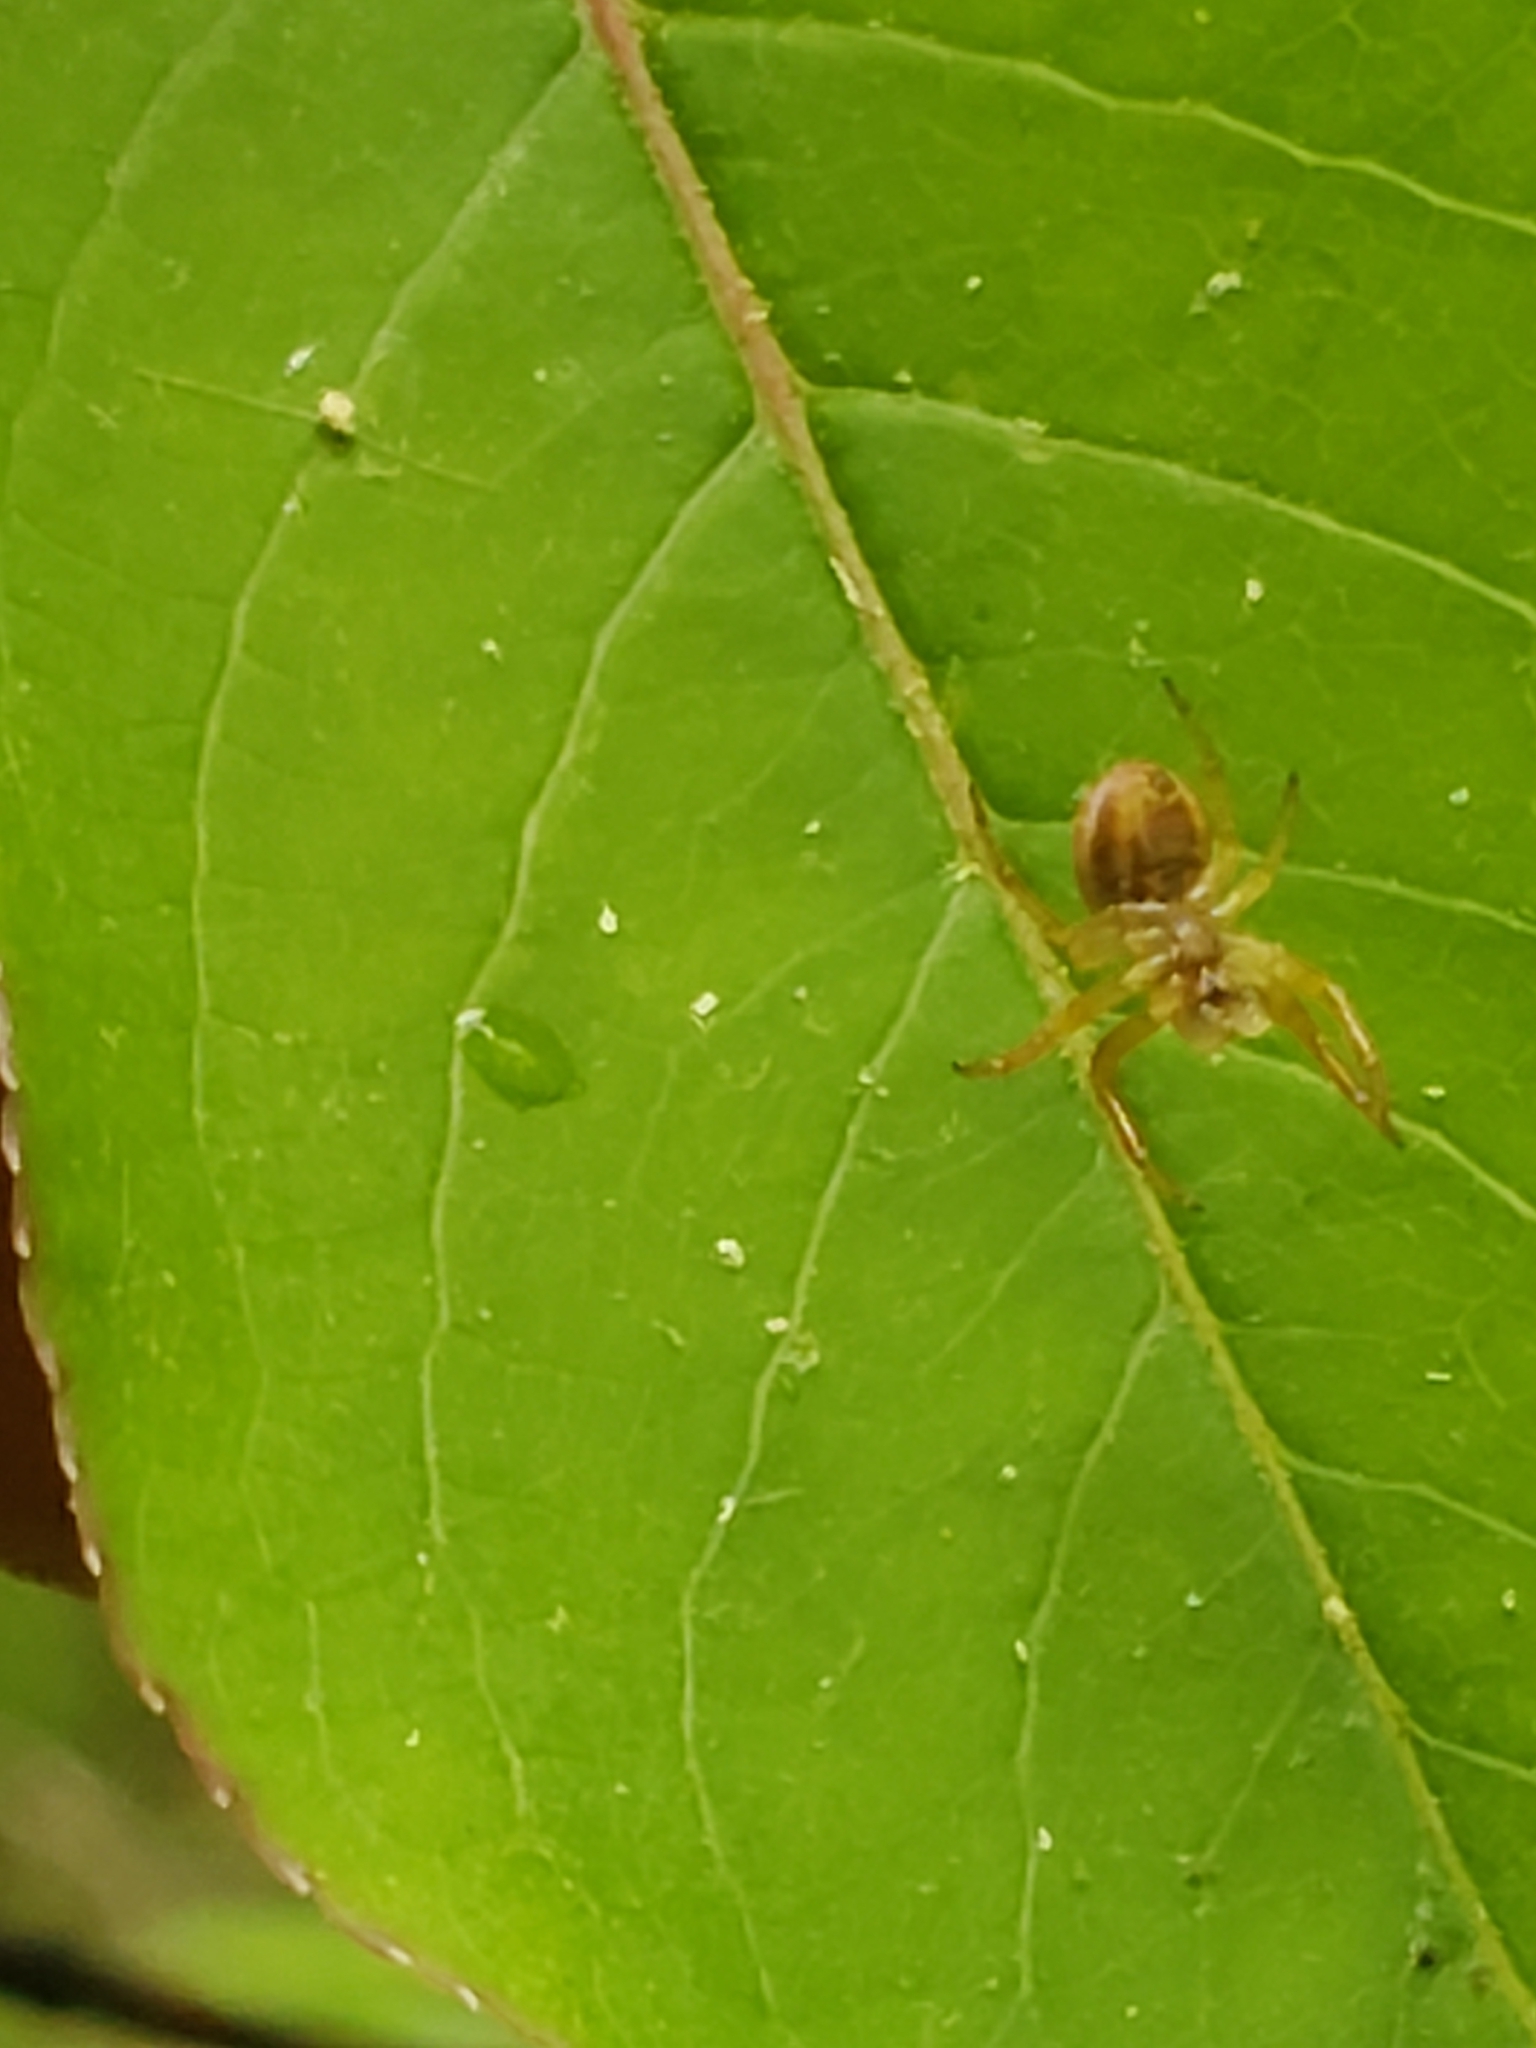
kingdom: Animalia
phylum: Arthropoda
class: Arachnida
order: Araneae
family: Araneidae
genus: Araniella
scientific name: Araniella displicata
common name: Sixspotted orb weaver
